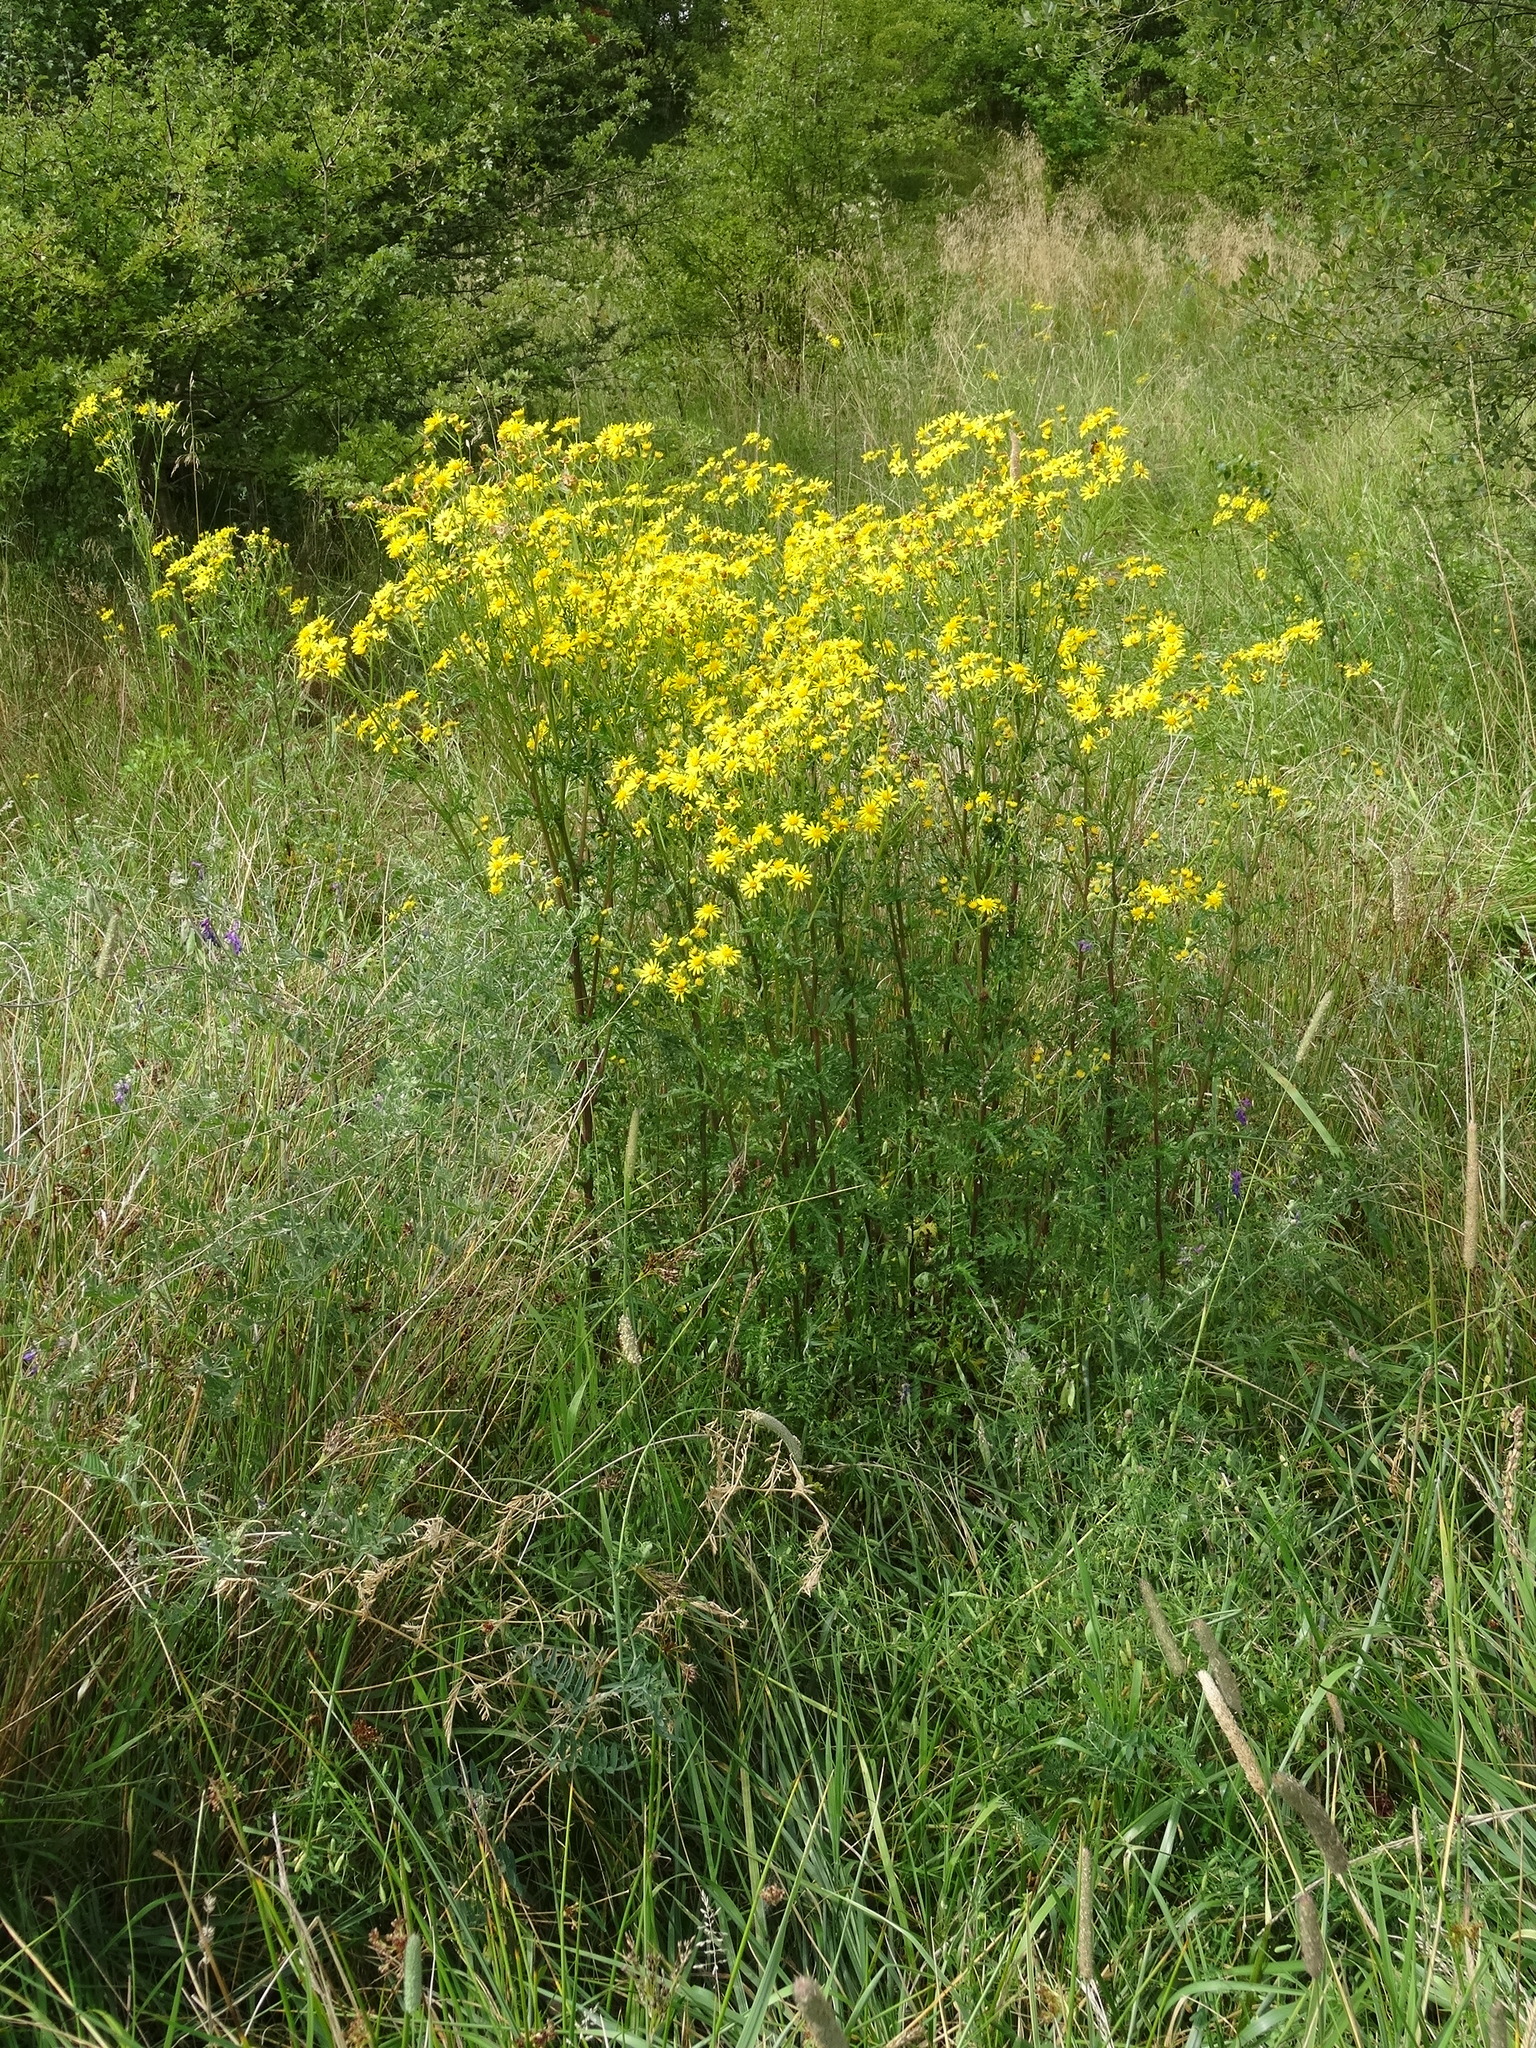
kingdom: Plantae
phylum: Tracheophyta
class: Magnoliopsida
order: Asterales
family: Asteraceae
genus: Jacobaea
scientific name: Jacobaea vulgaris
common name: Stinking willie
